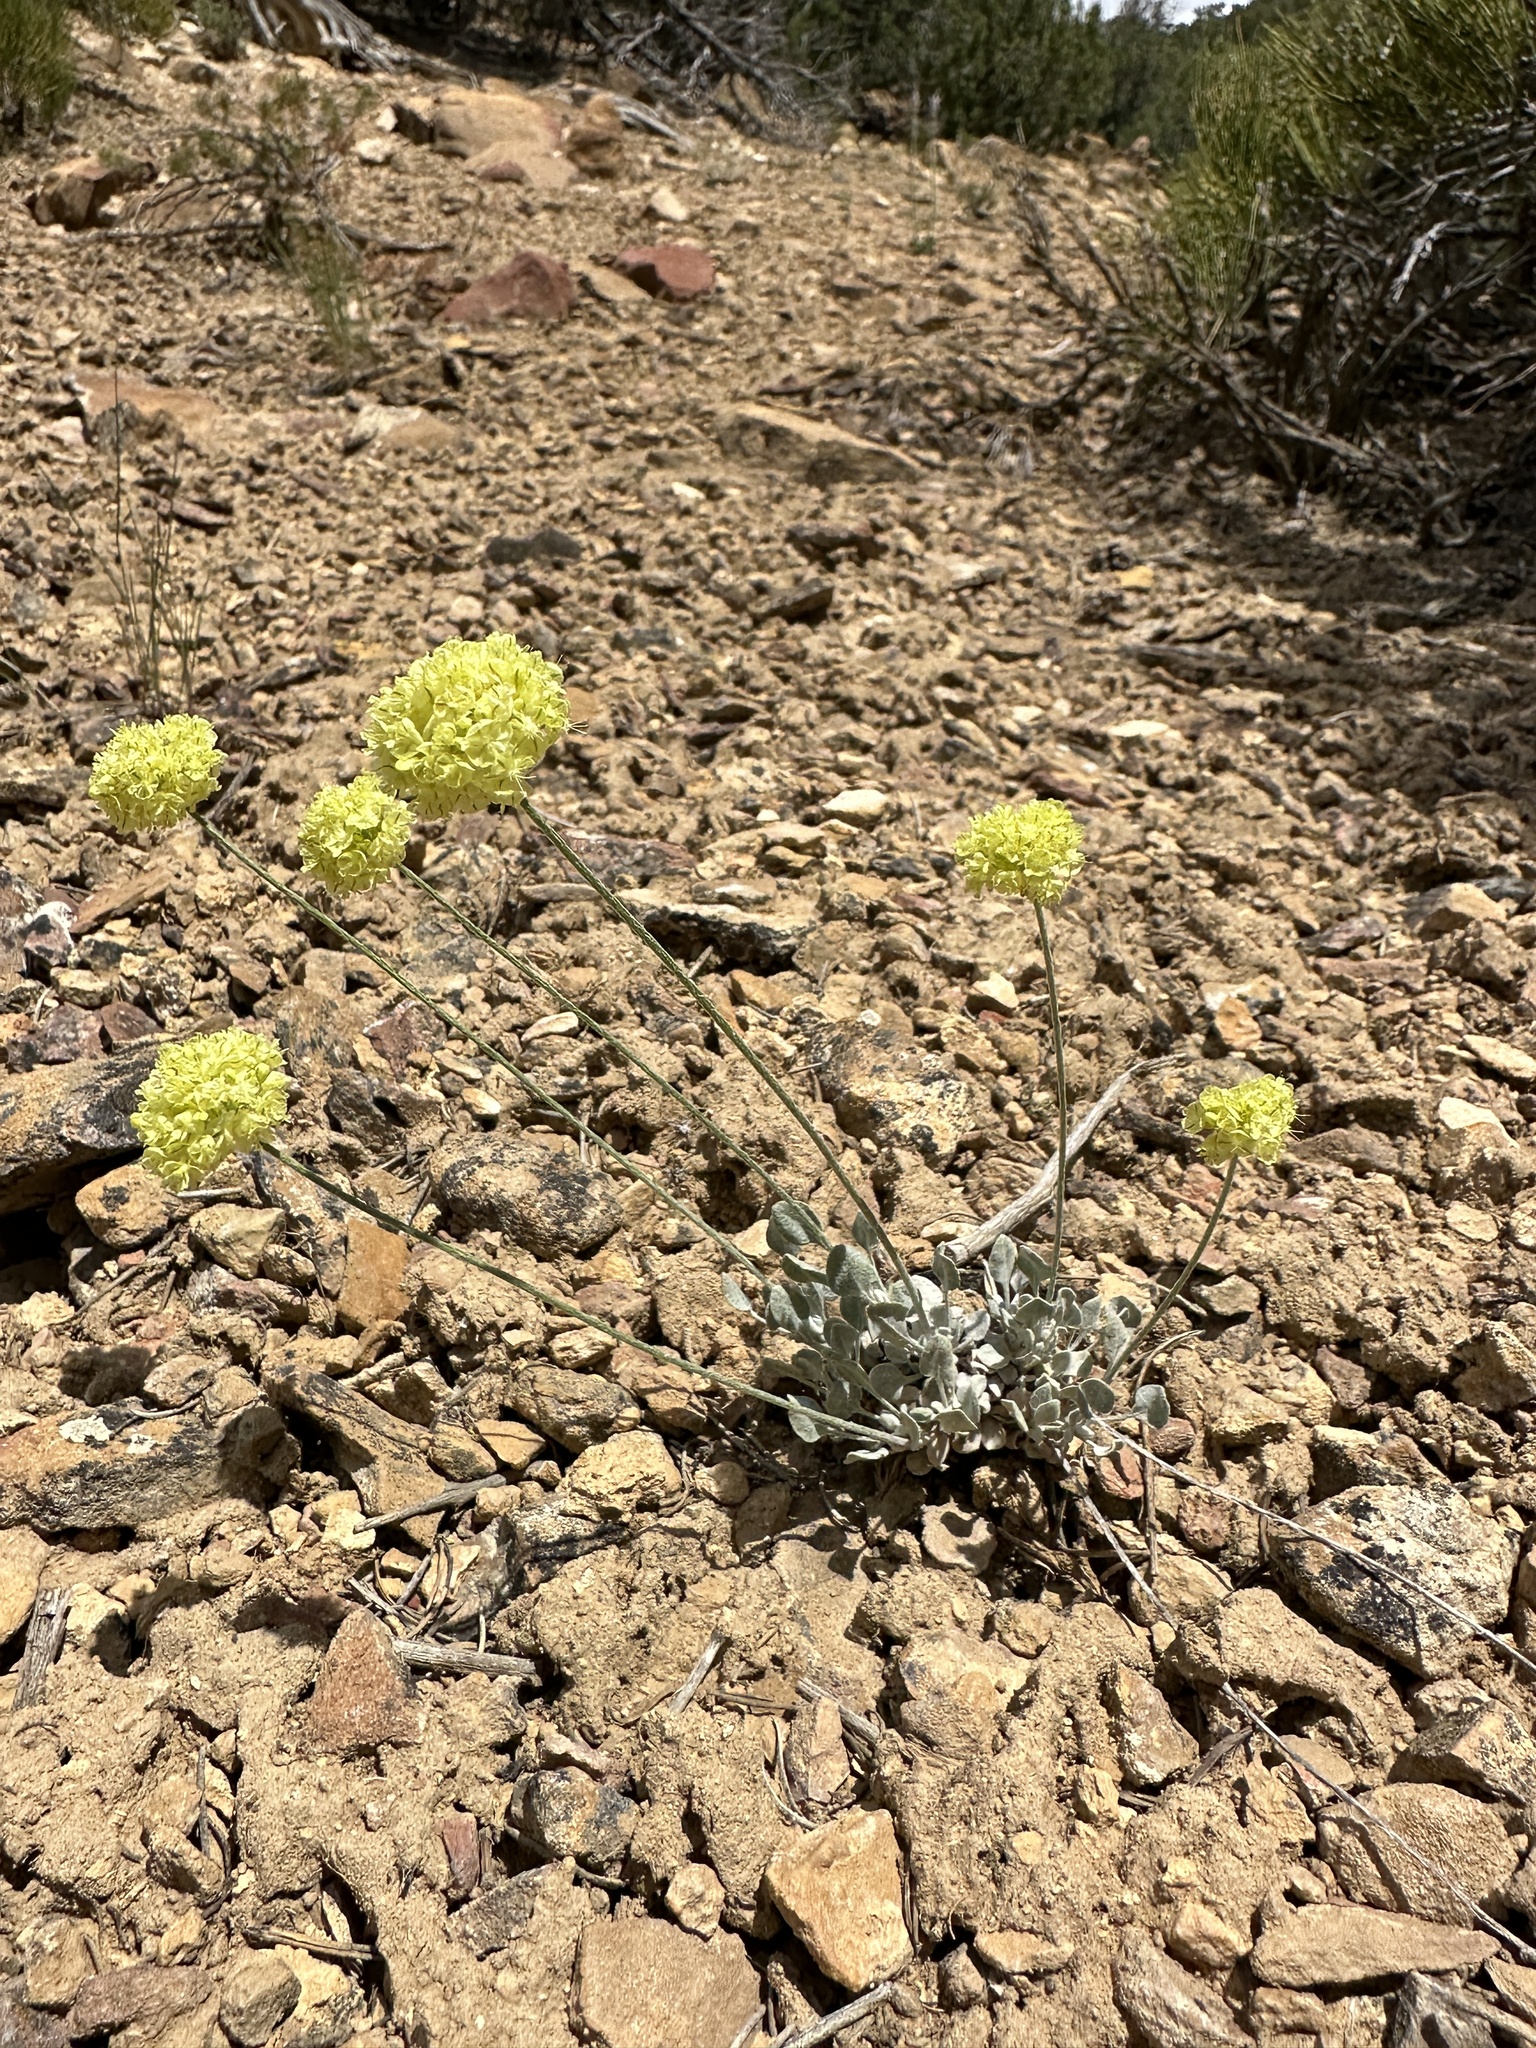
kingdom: Plantae
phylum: Tracheophyta
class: Magnoliopsida
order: Caryophyllales
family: Polygonaceae
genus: Eriogonum
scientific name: Eriogonum ovalifolium
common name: Cushion buckwheat
